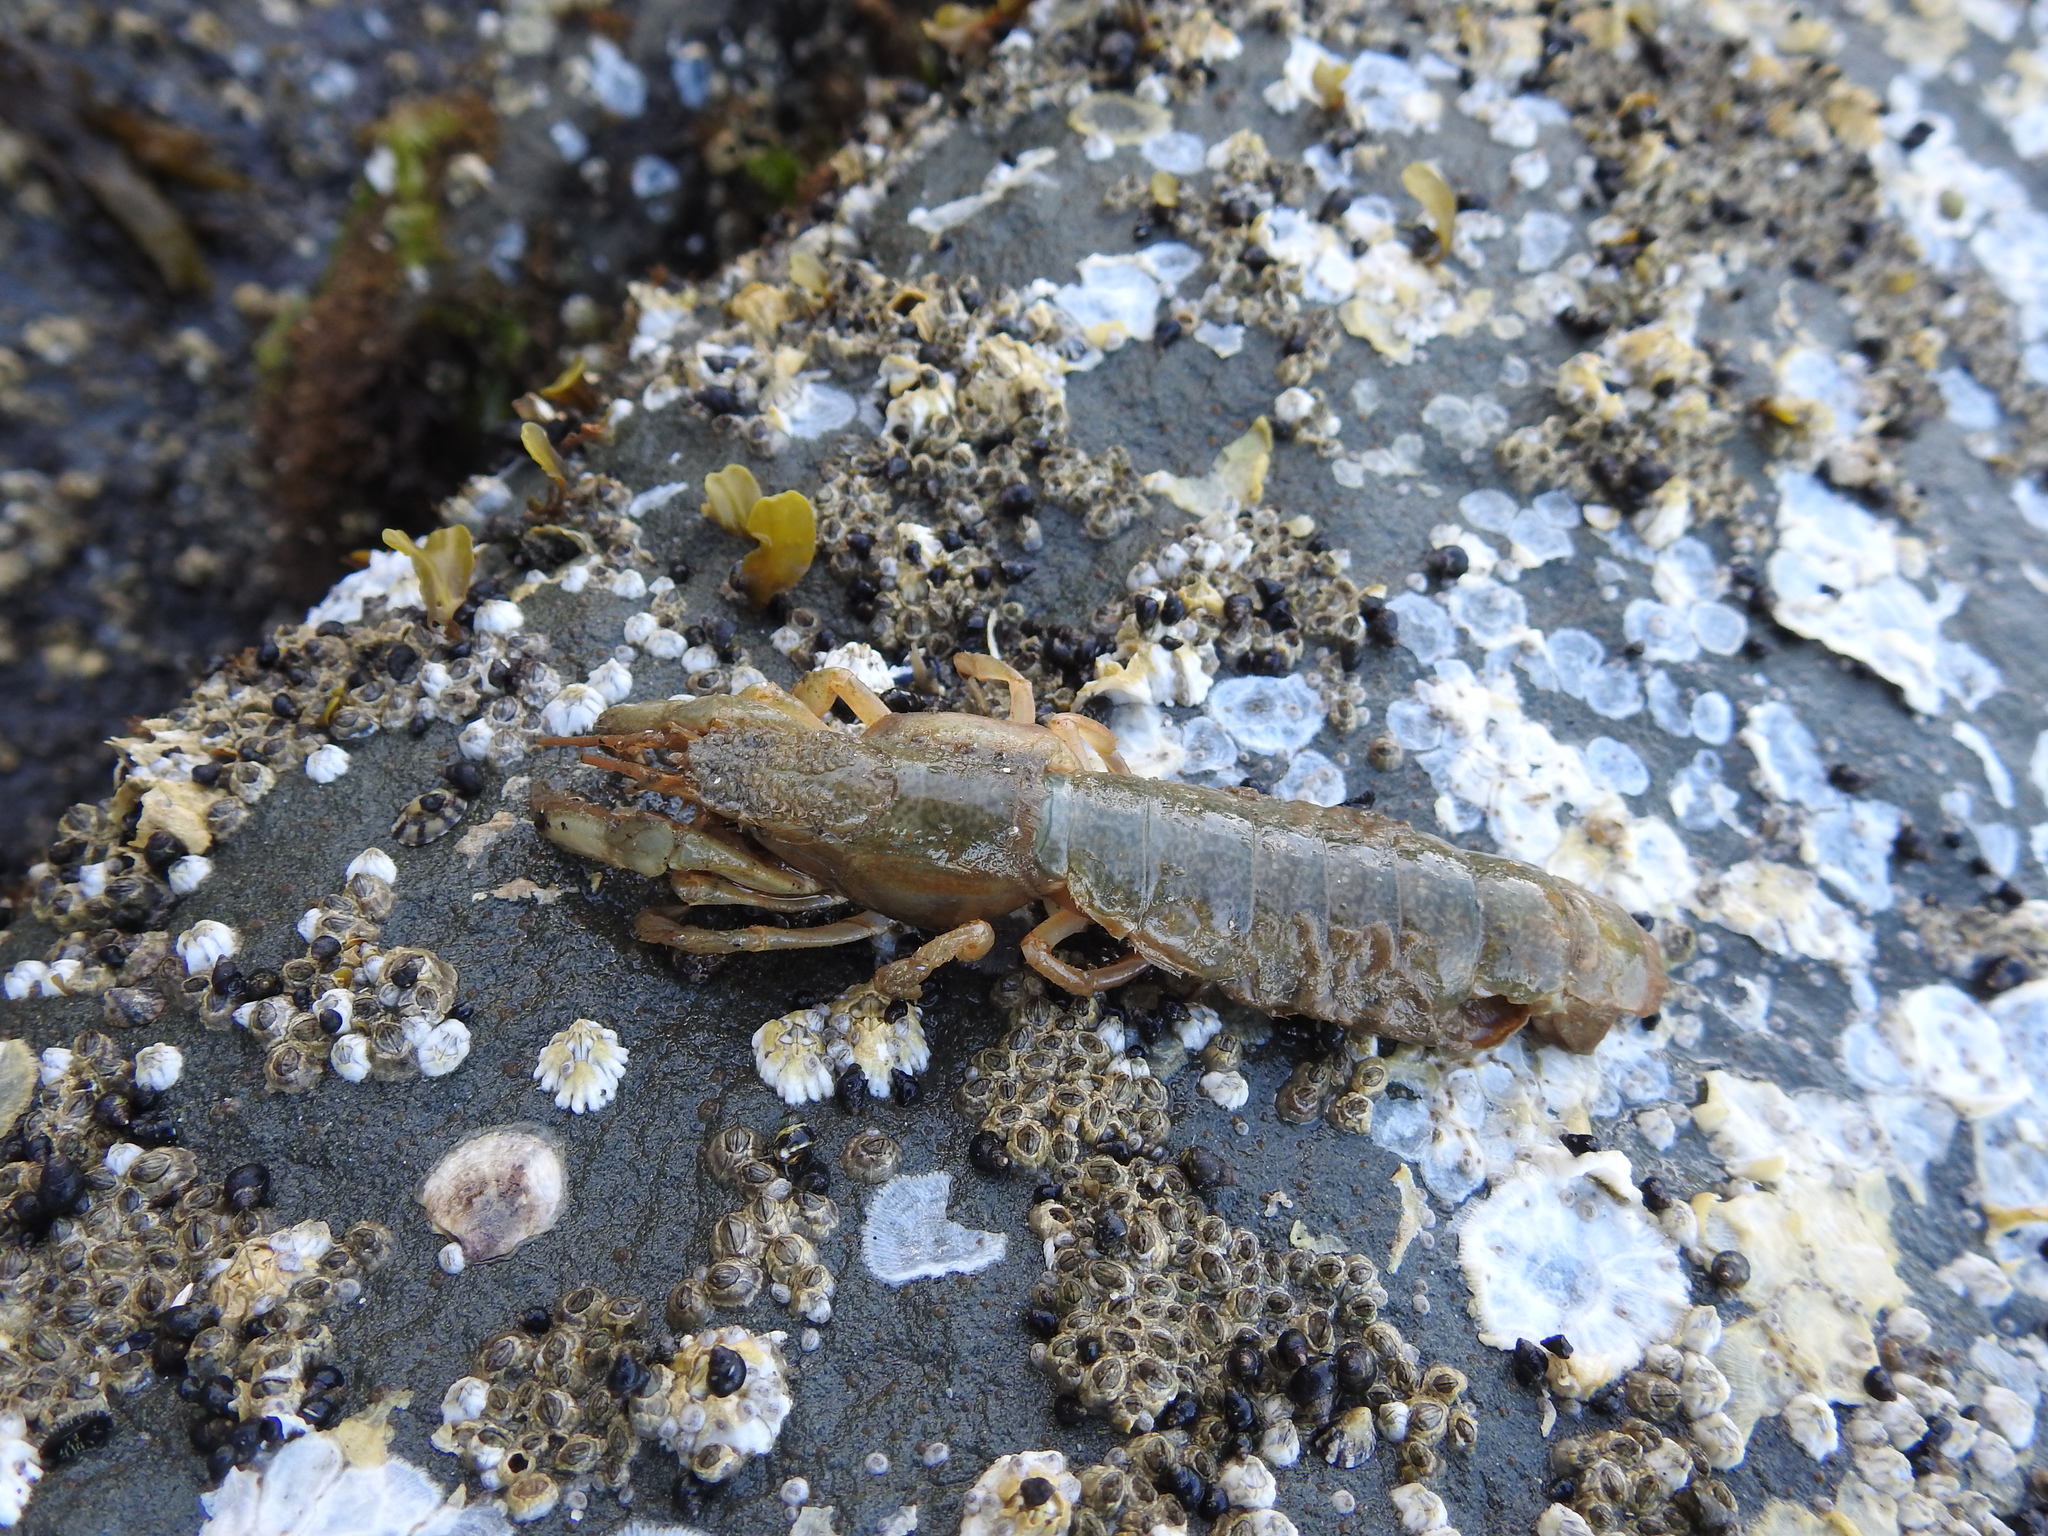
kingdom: Animalia
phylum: Arthropoda
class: Malacostraca
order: Decapoda
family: Upogebiidae
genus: Upogebia
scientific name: Upogebia pugettensis
